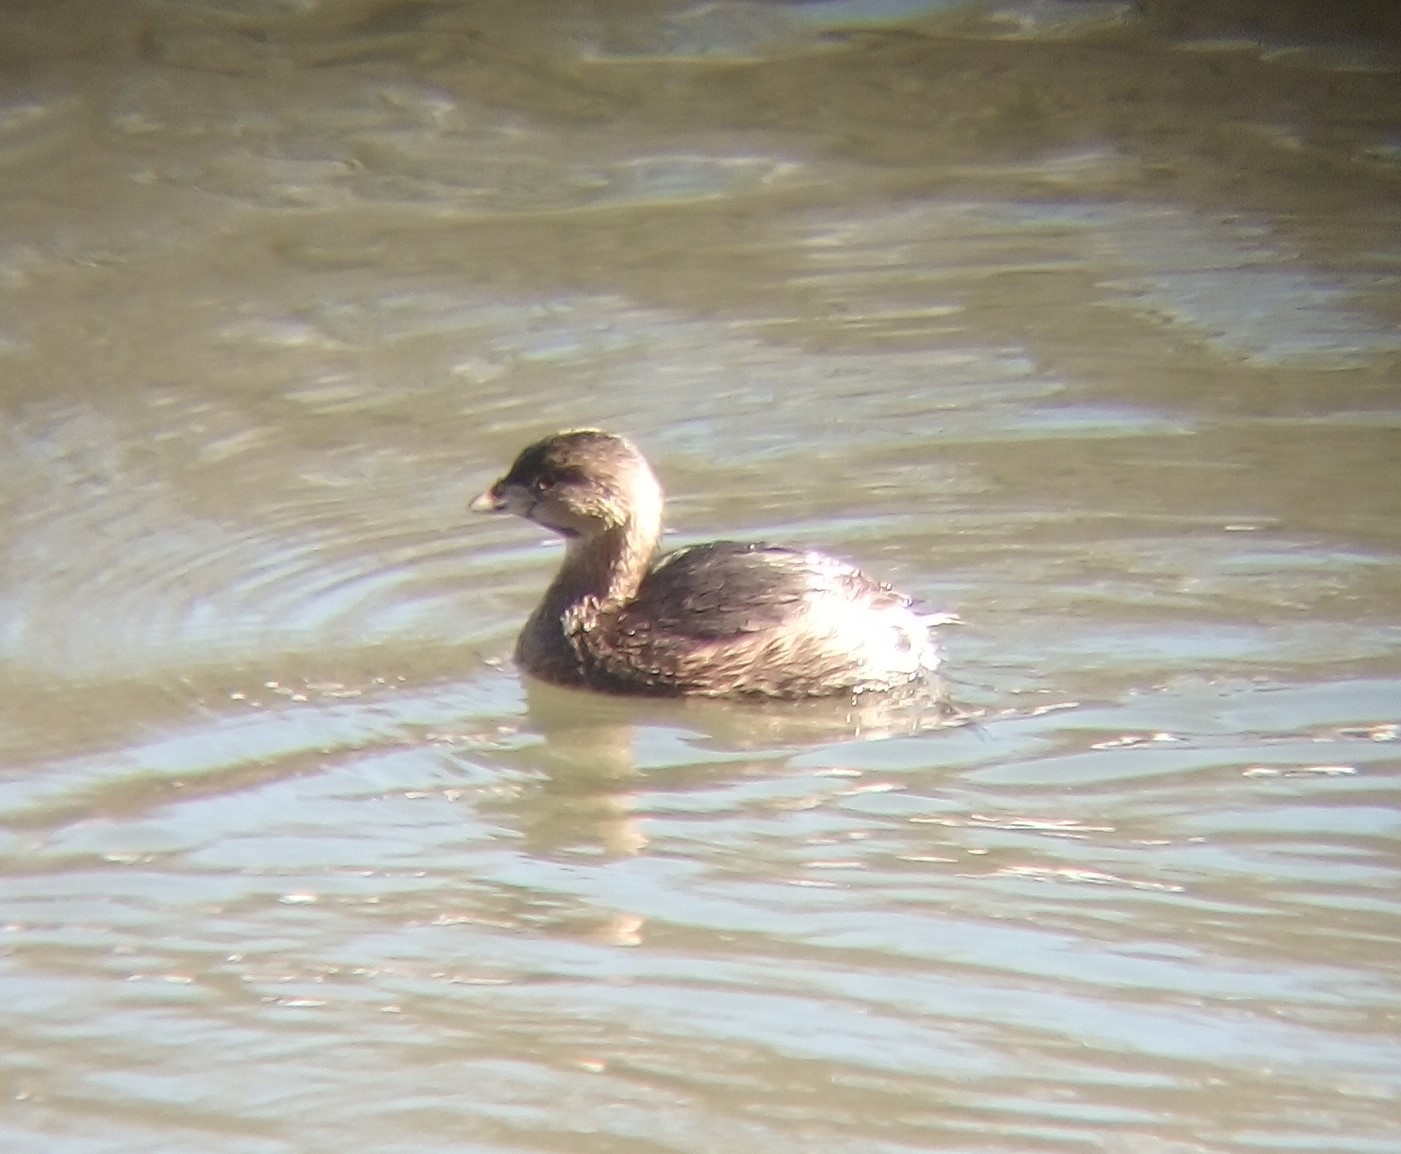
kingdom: Animalia
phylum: Chordata
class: Aves
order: Podicipediformes
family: Podicipedidae
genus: Podilymbus
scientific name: Podilymbus podiceps
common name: Pied-billed grebe
